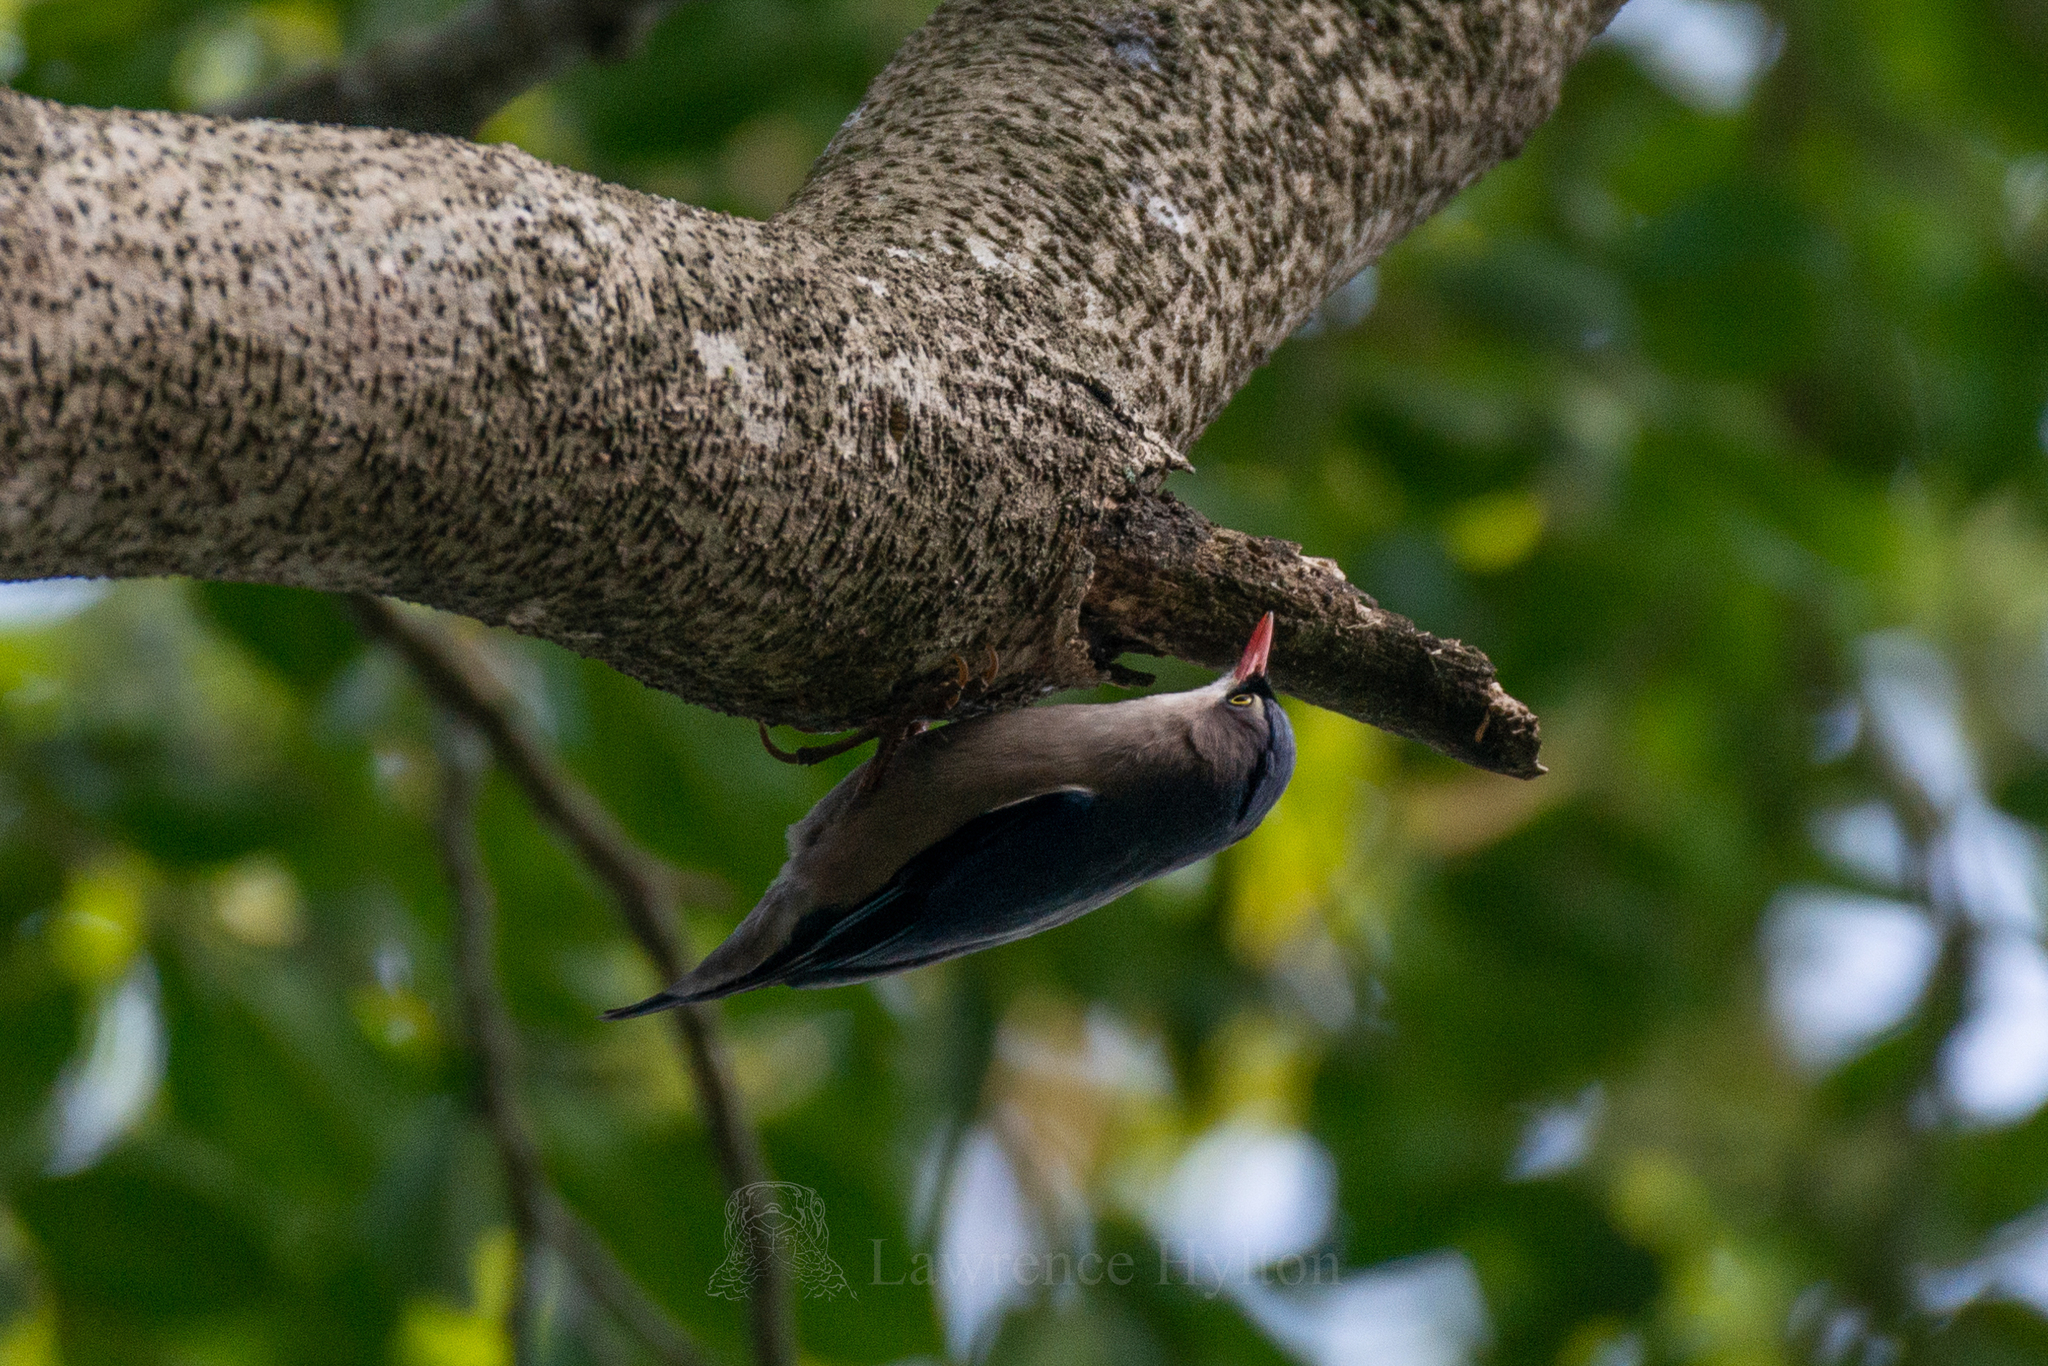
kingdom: Animalia
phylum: Chordata
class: Aves
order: Passeriformes
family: Sittidae
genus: Sitta
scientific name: Sitta frontalis
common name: Velvet-fronted nuthatch
